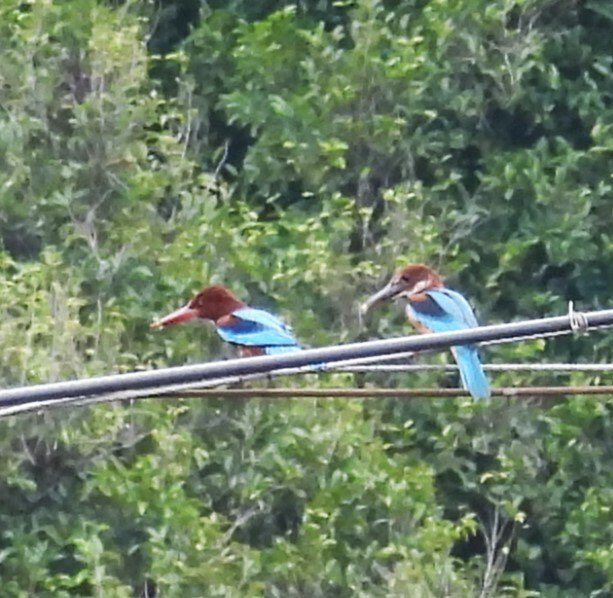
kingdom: Animalia
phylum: Chordata
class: Aves
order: Coraciiformes
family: Alcedinidae
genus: Halcyon
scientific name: Halcyon smyrnensis
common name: White-throated kingfisher
